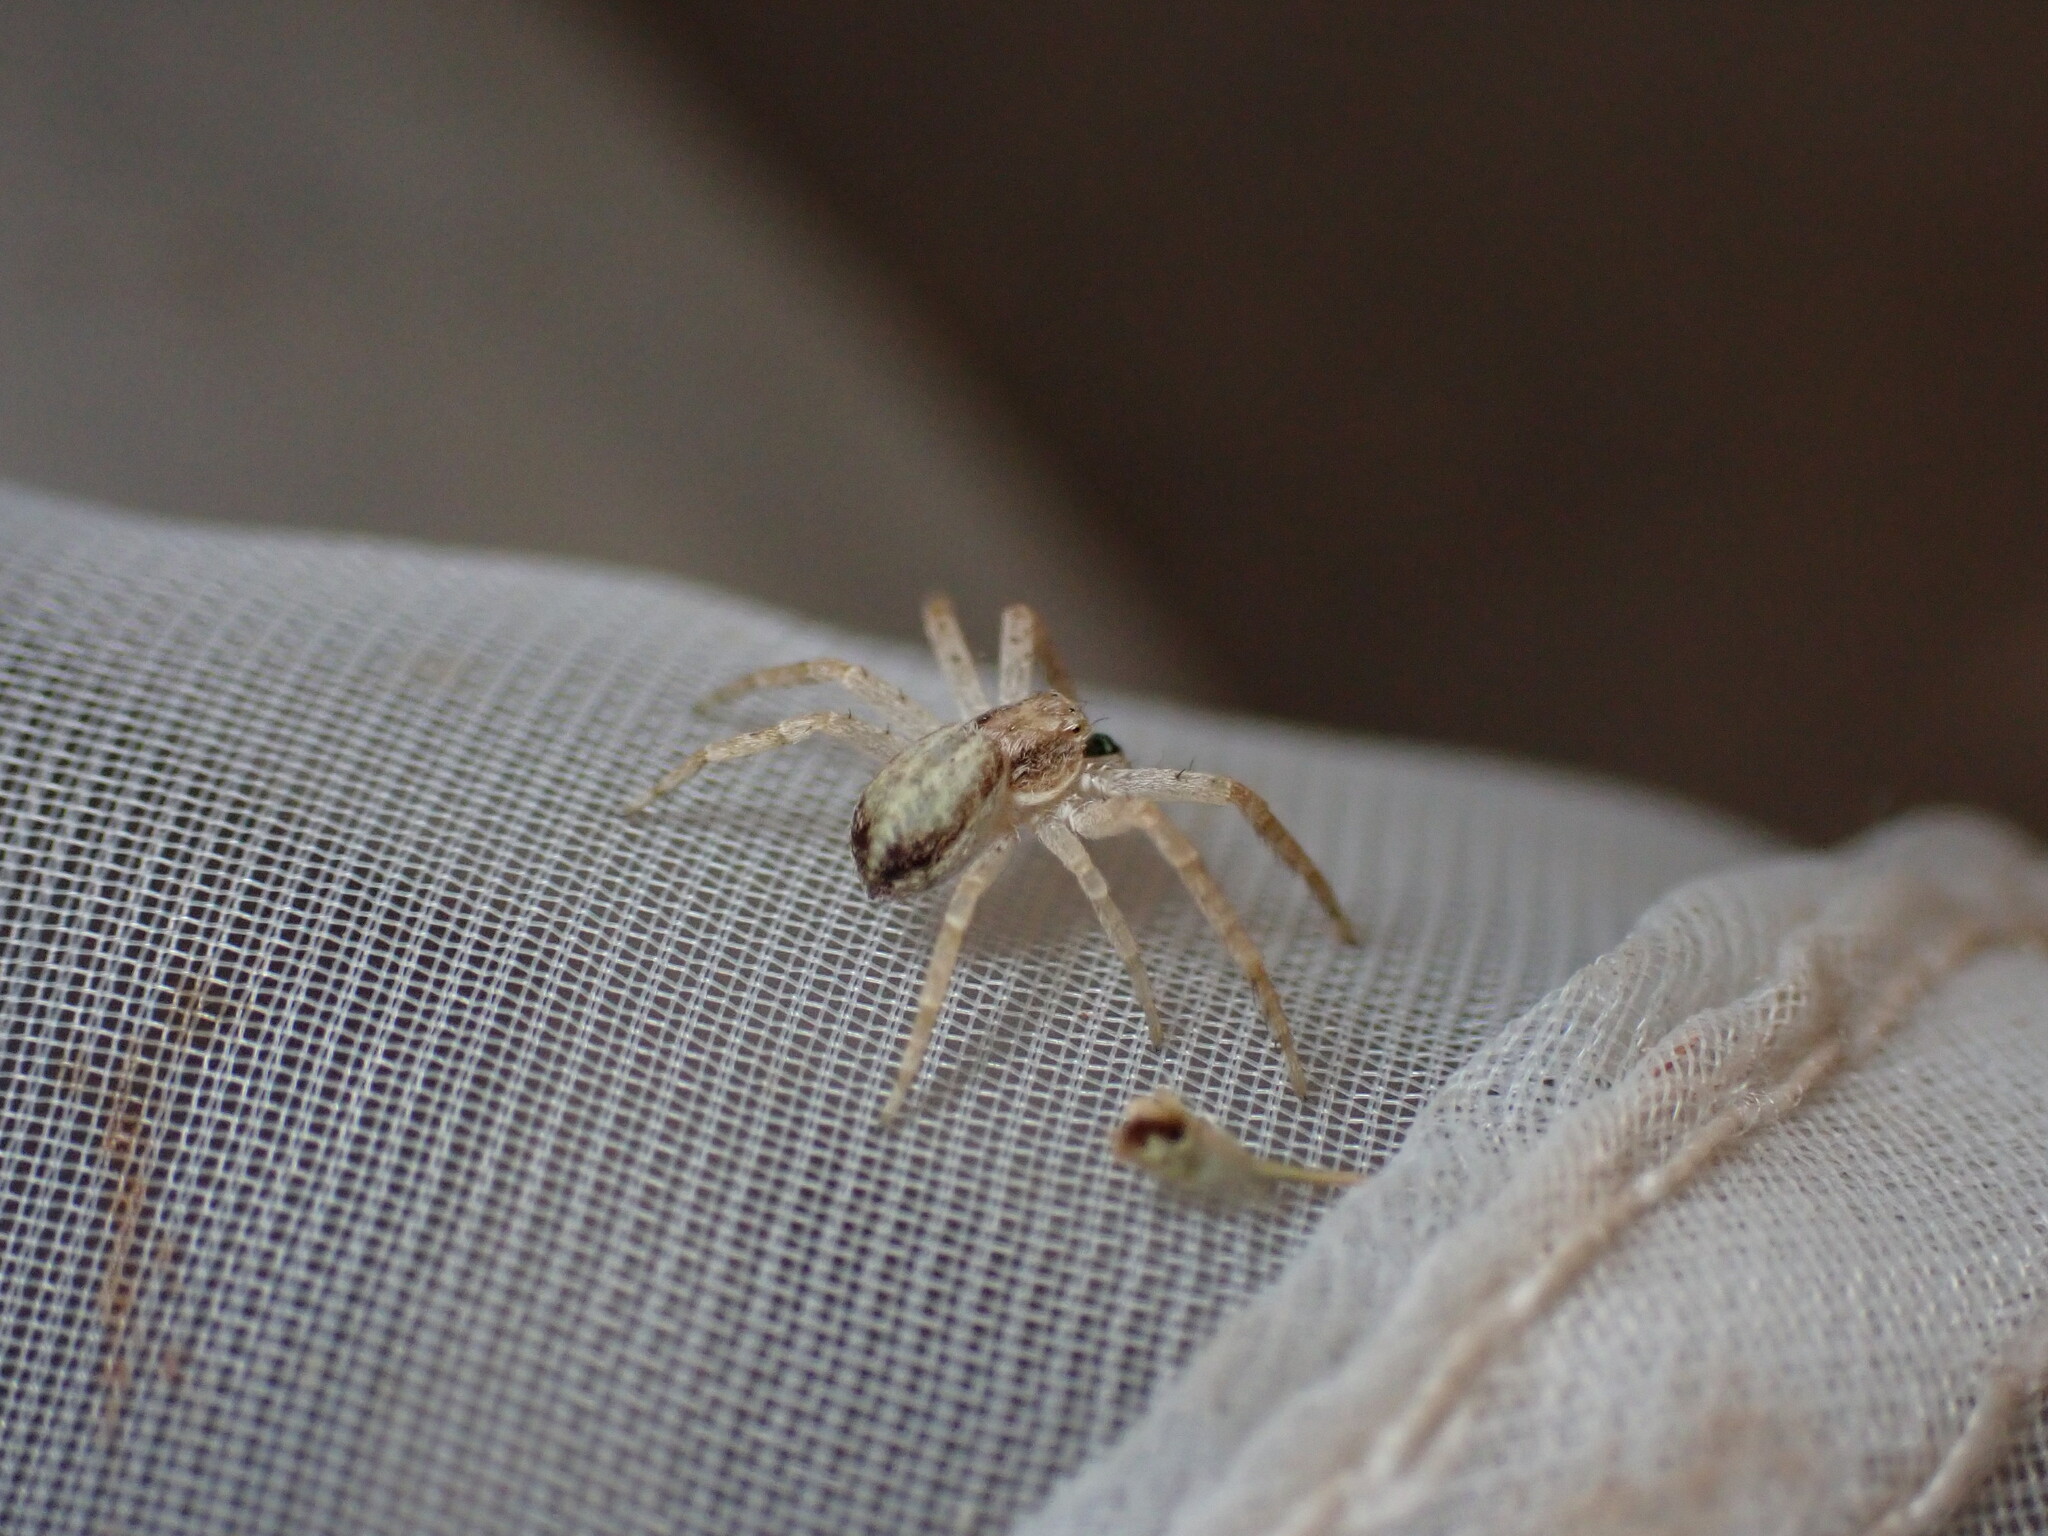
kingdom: Animalia
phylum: Arthropoda
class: Arachnida
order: Araneae
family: Philodromidae
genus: Philodromus
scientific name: Philodromus dispar
